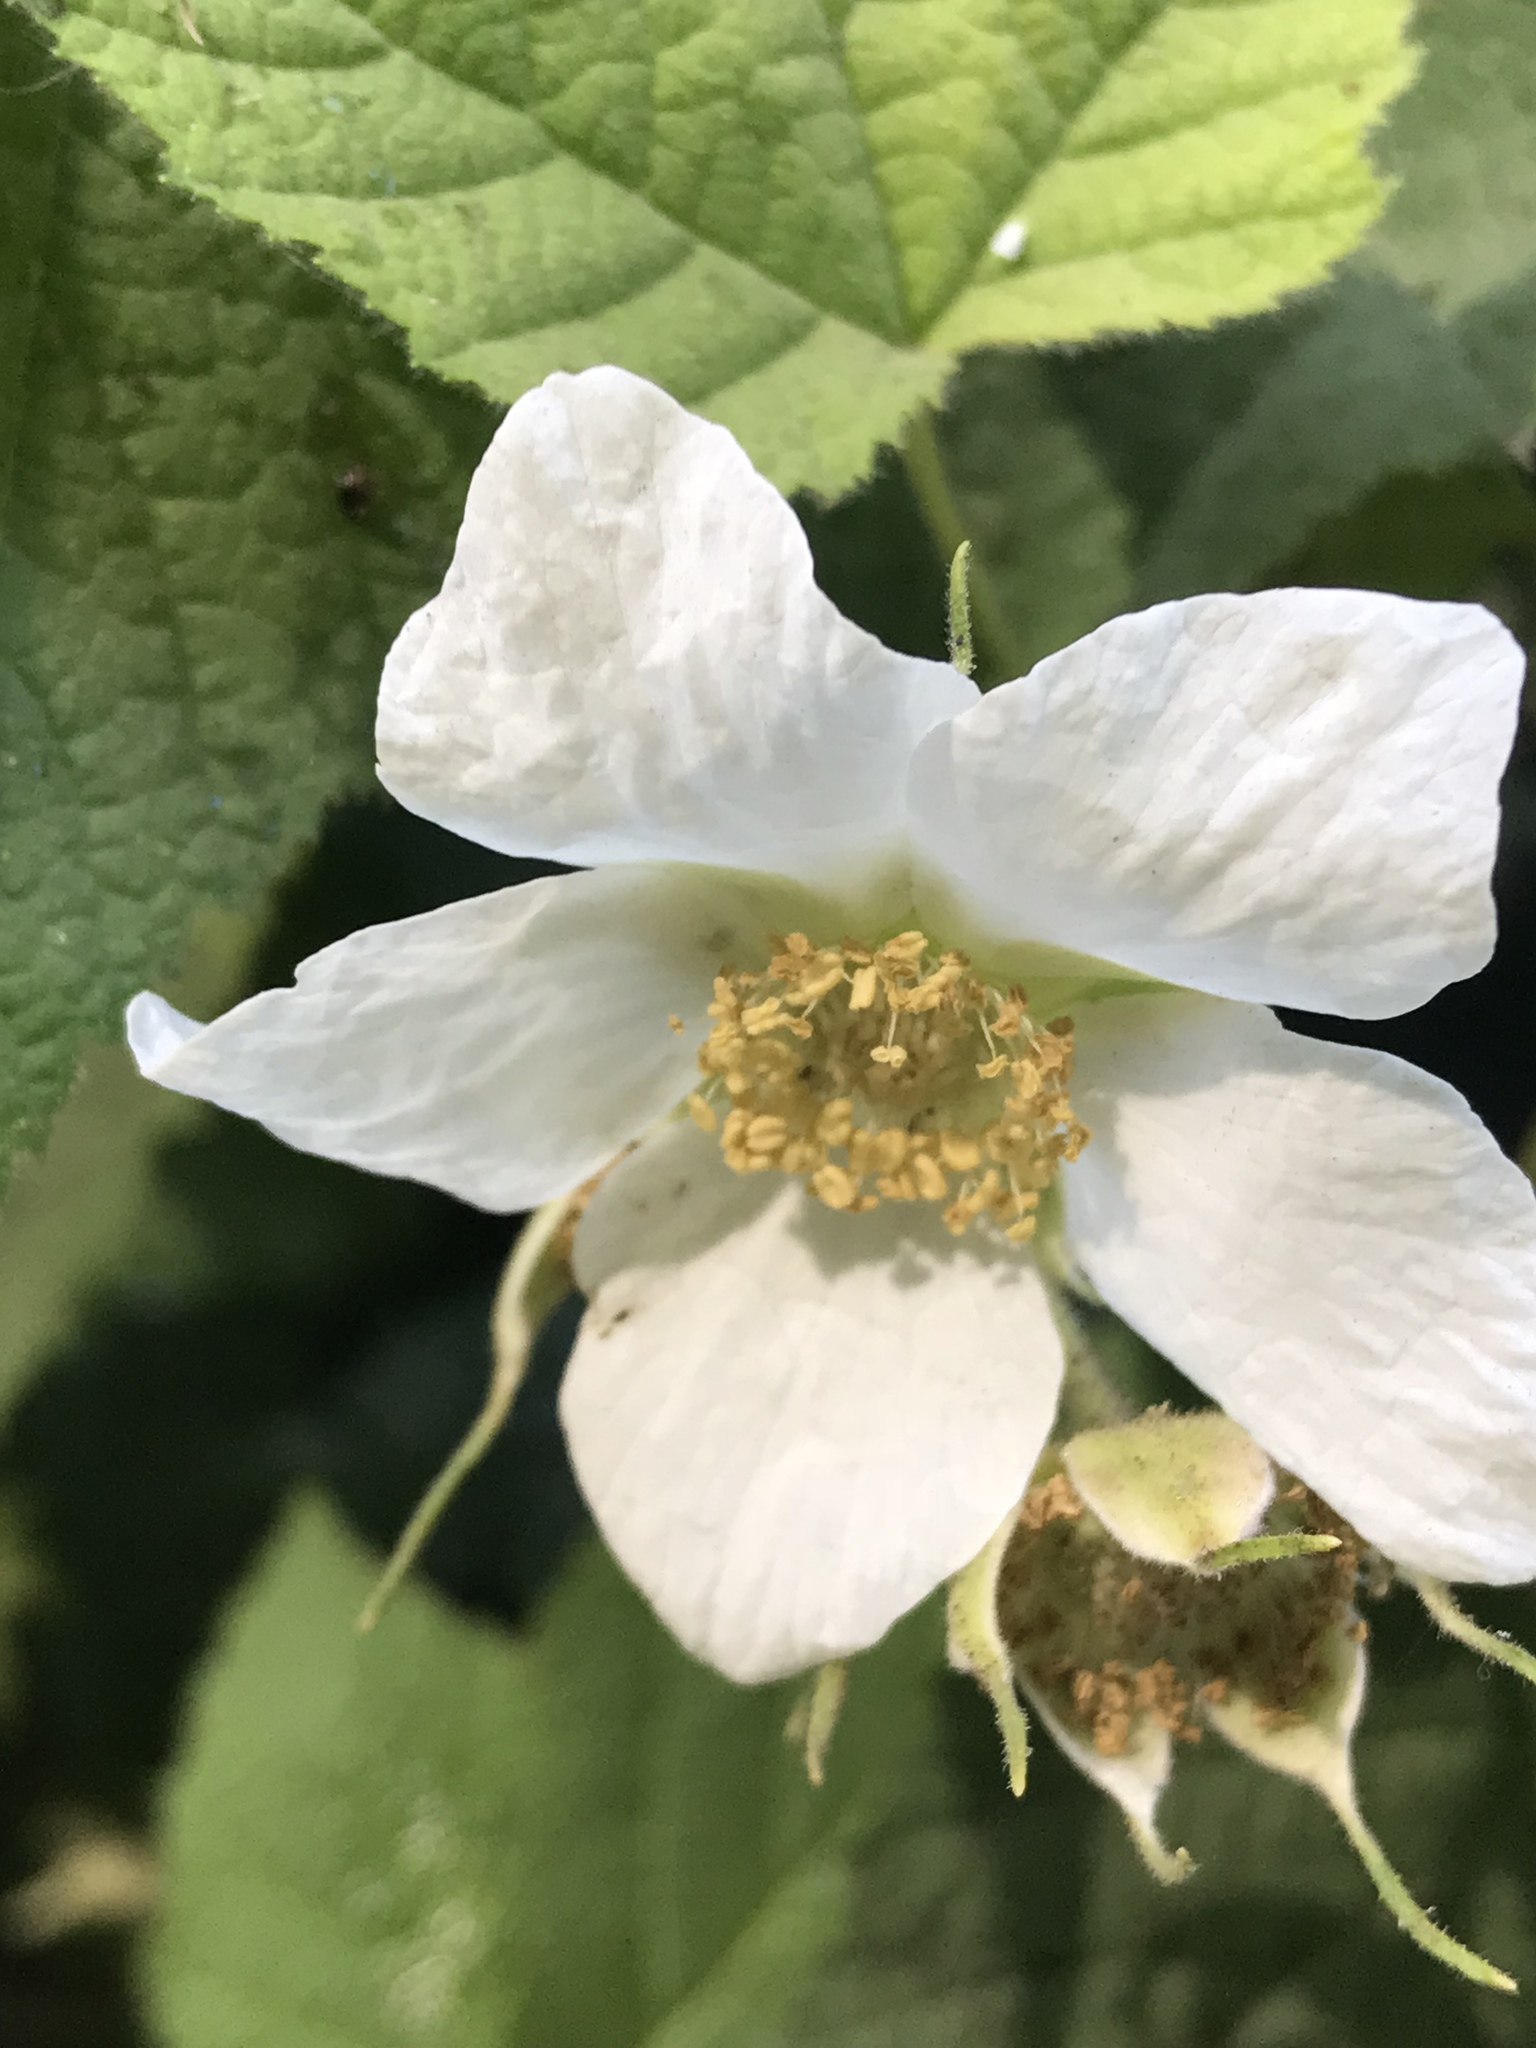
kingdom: Plantae
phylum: Tracheophyta
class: Magnoliopsida
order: Rosales
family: Rosaceae
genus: Rubus
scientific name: Rubus parviflorus
